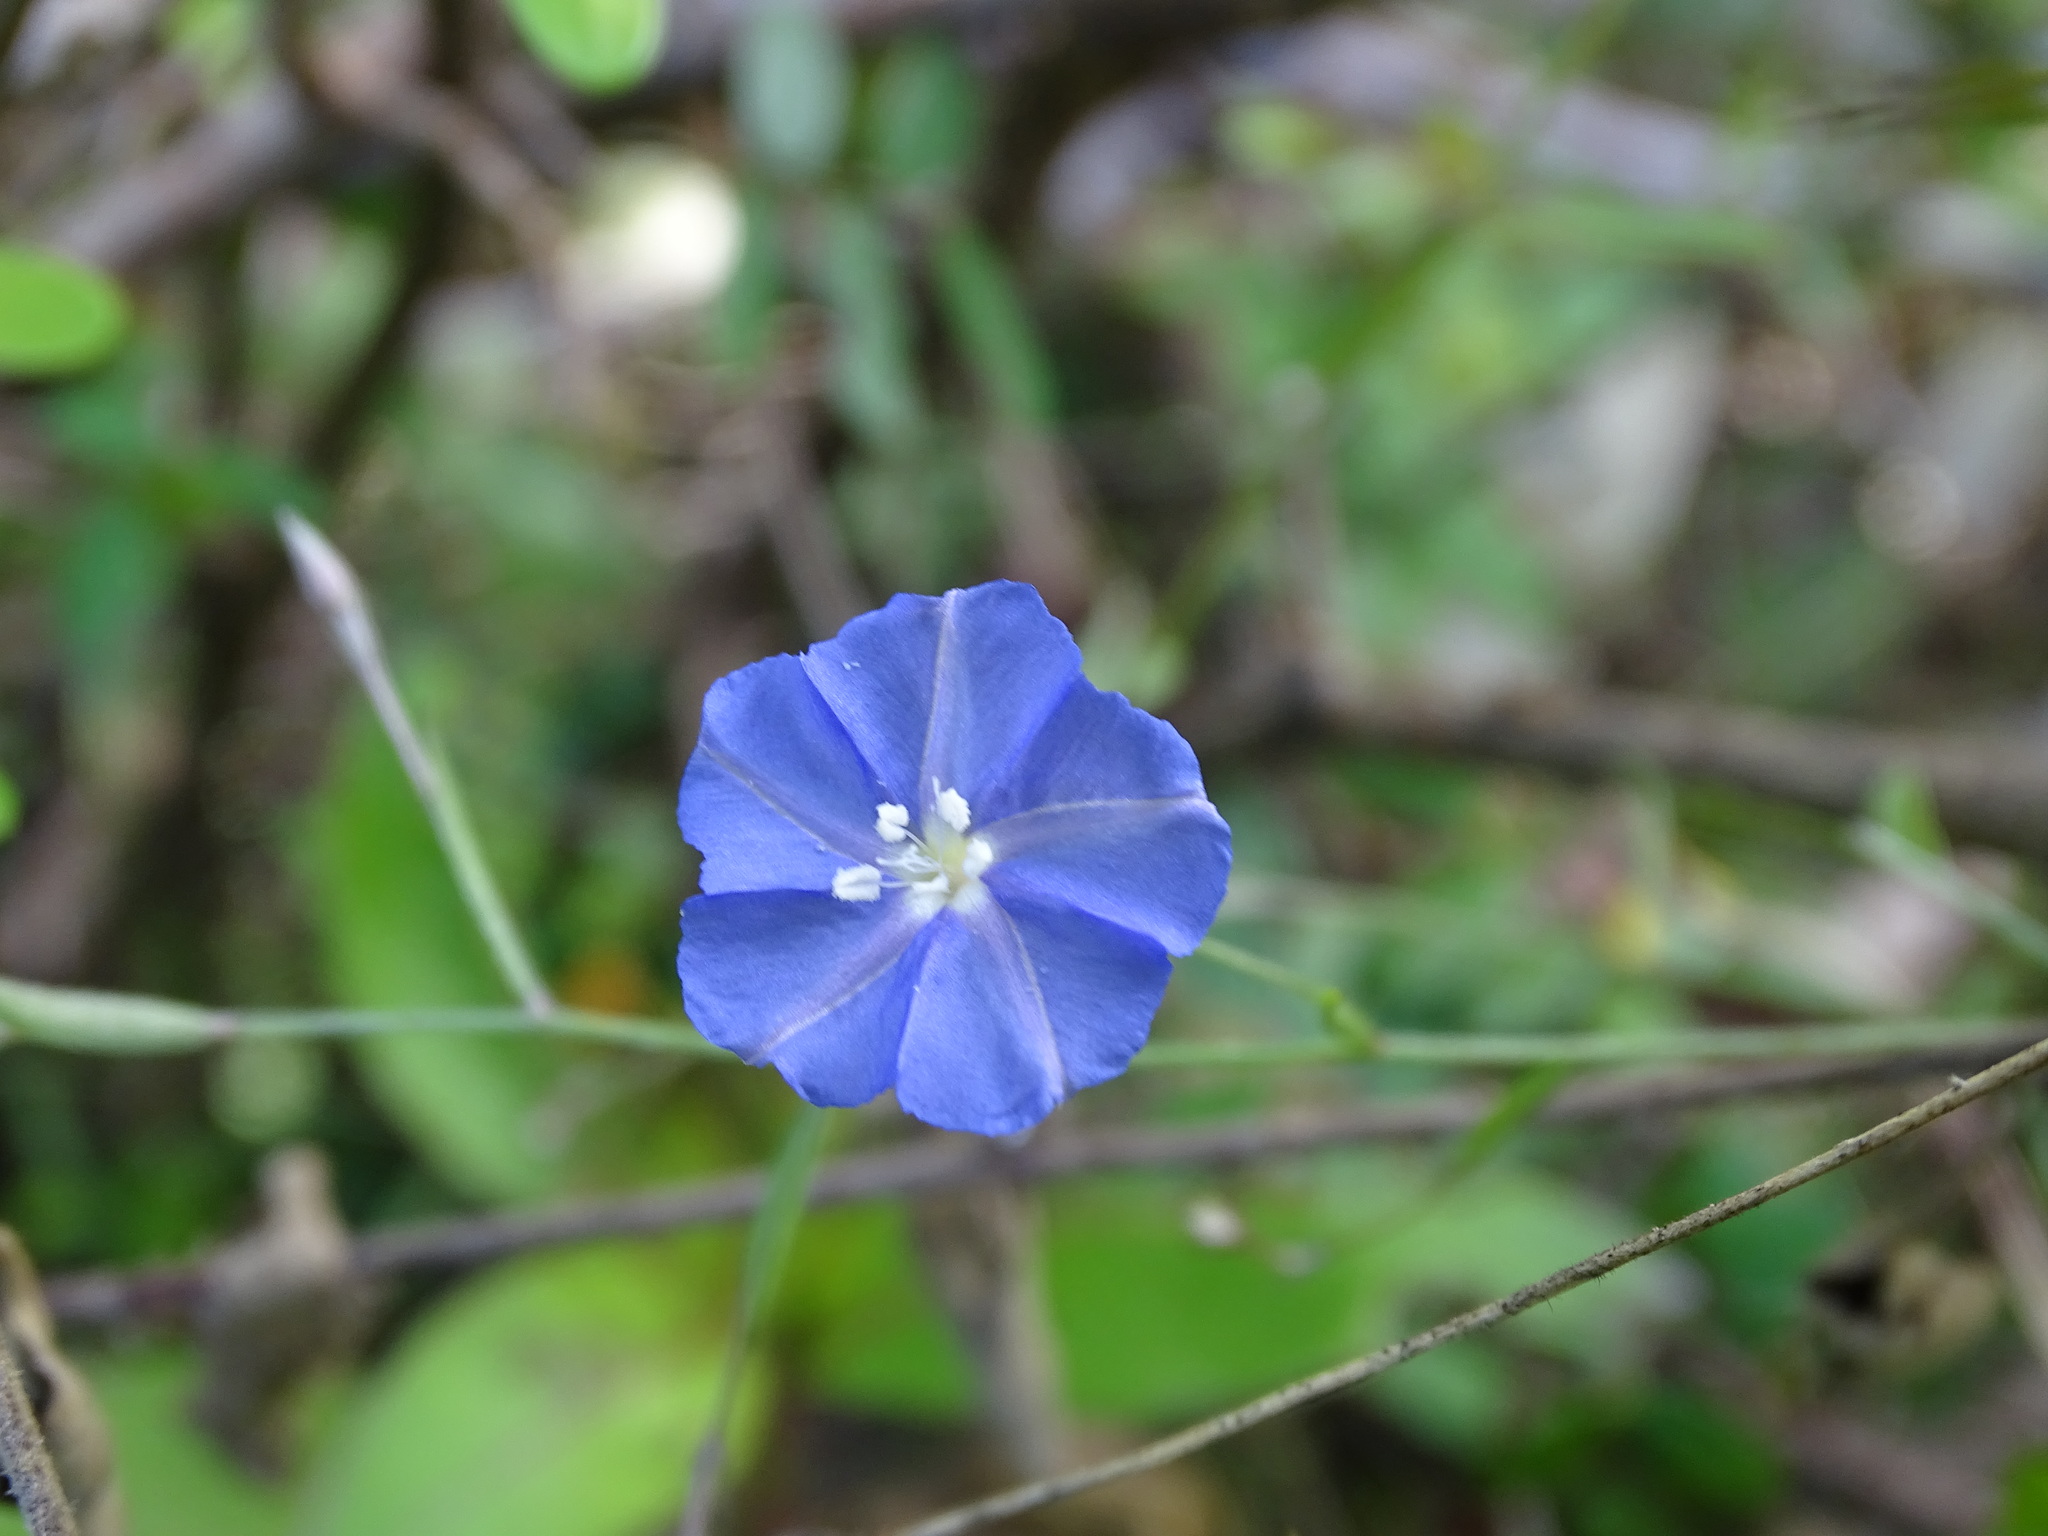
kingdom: Plantae
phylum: Tracheophyta
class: Magnoliopsida
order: Solanales
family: Convolvulaceae
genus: Evolvulus
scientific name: Evolvulus alsinoides
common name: Slender dwarf morning-glory
